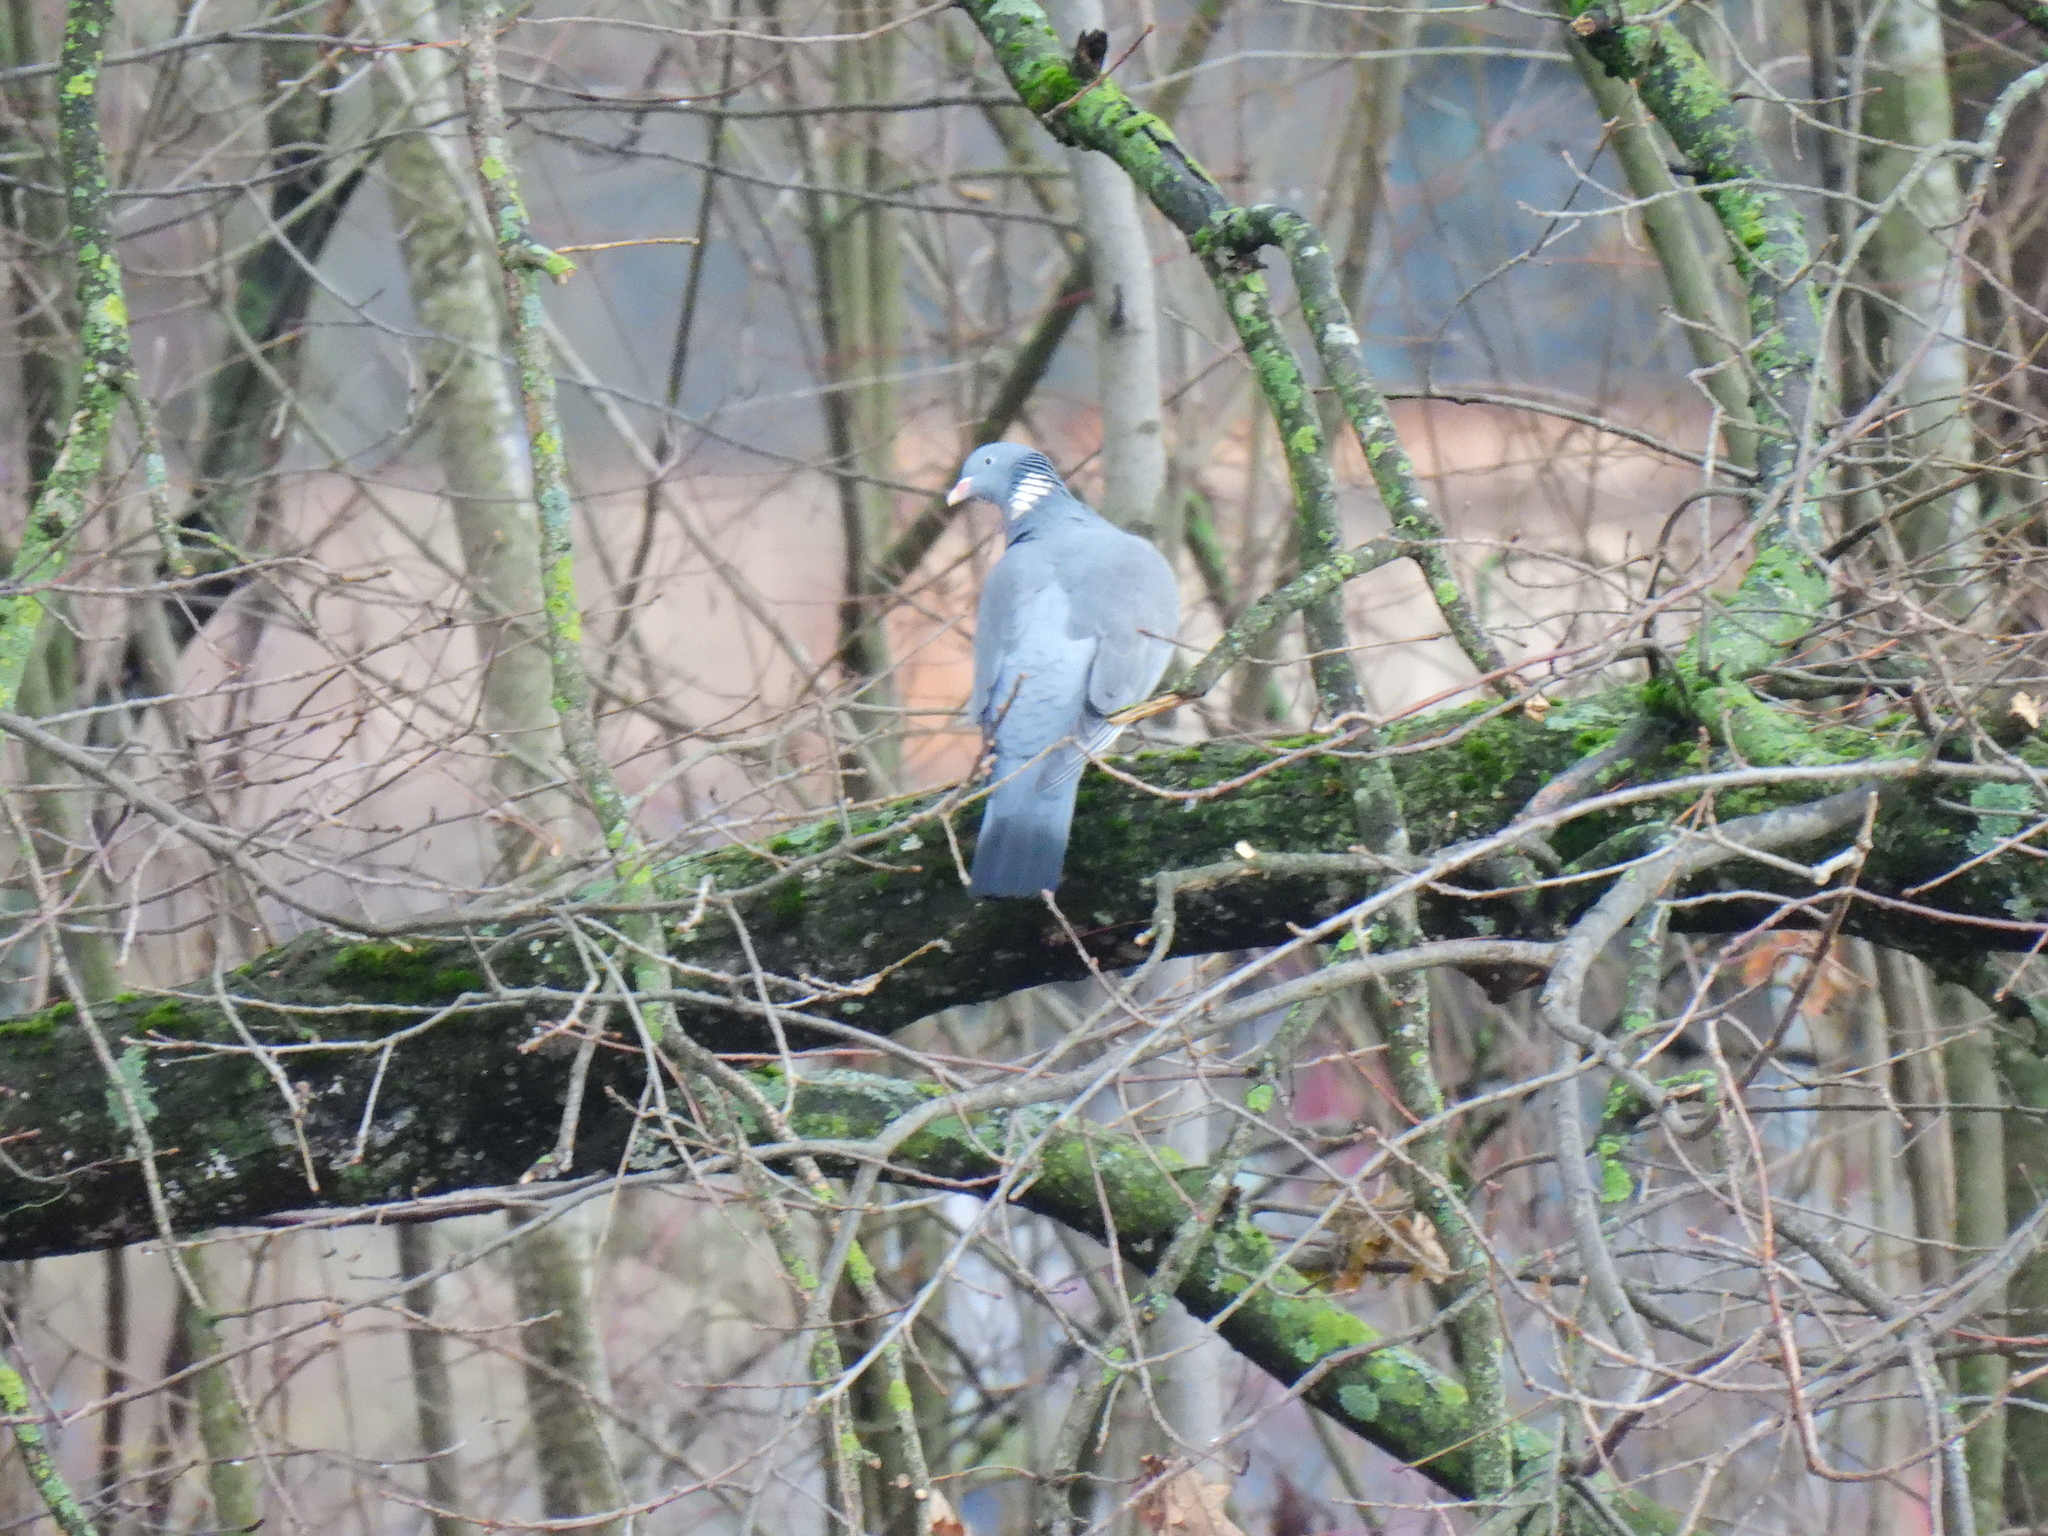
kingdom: Animalia
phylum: Chordata
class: Aves
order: Columbiformes
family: Columbidae
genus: Columba
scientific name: Columba palumbus
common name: Common wood pigeon
